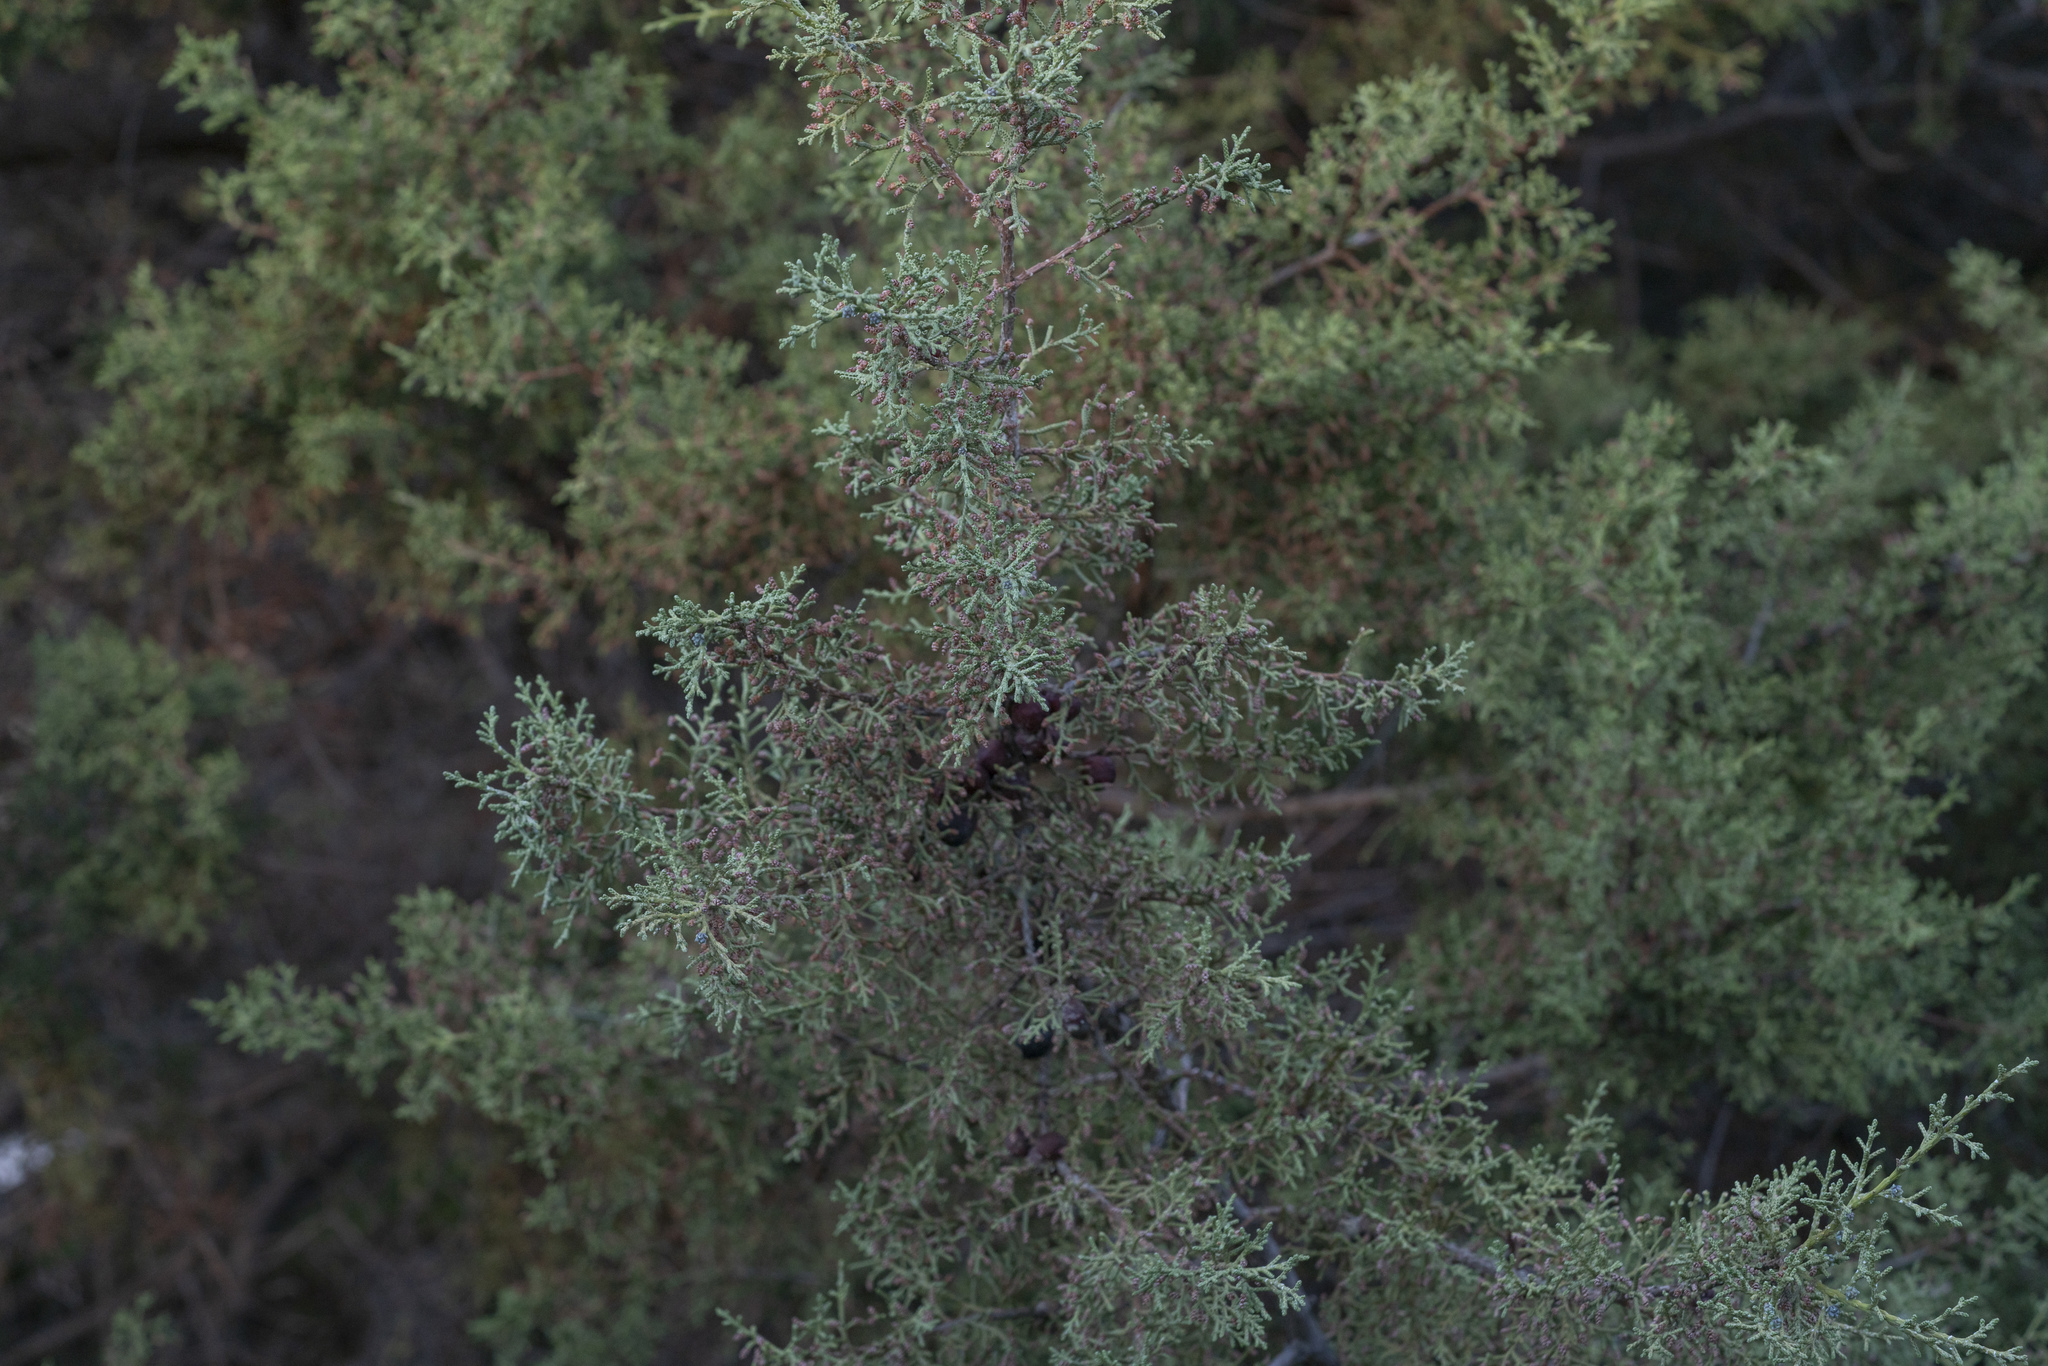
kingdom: Plantae
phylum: Tracheophyta
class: Pinopsida
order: Pinales
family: Cupressaceae
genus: Juniperus
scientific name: Juniperus phoenicea
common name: Phoenician juniper
